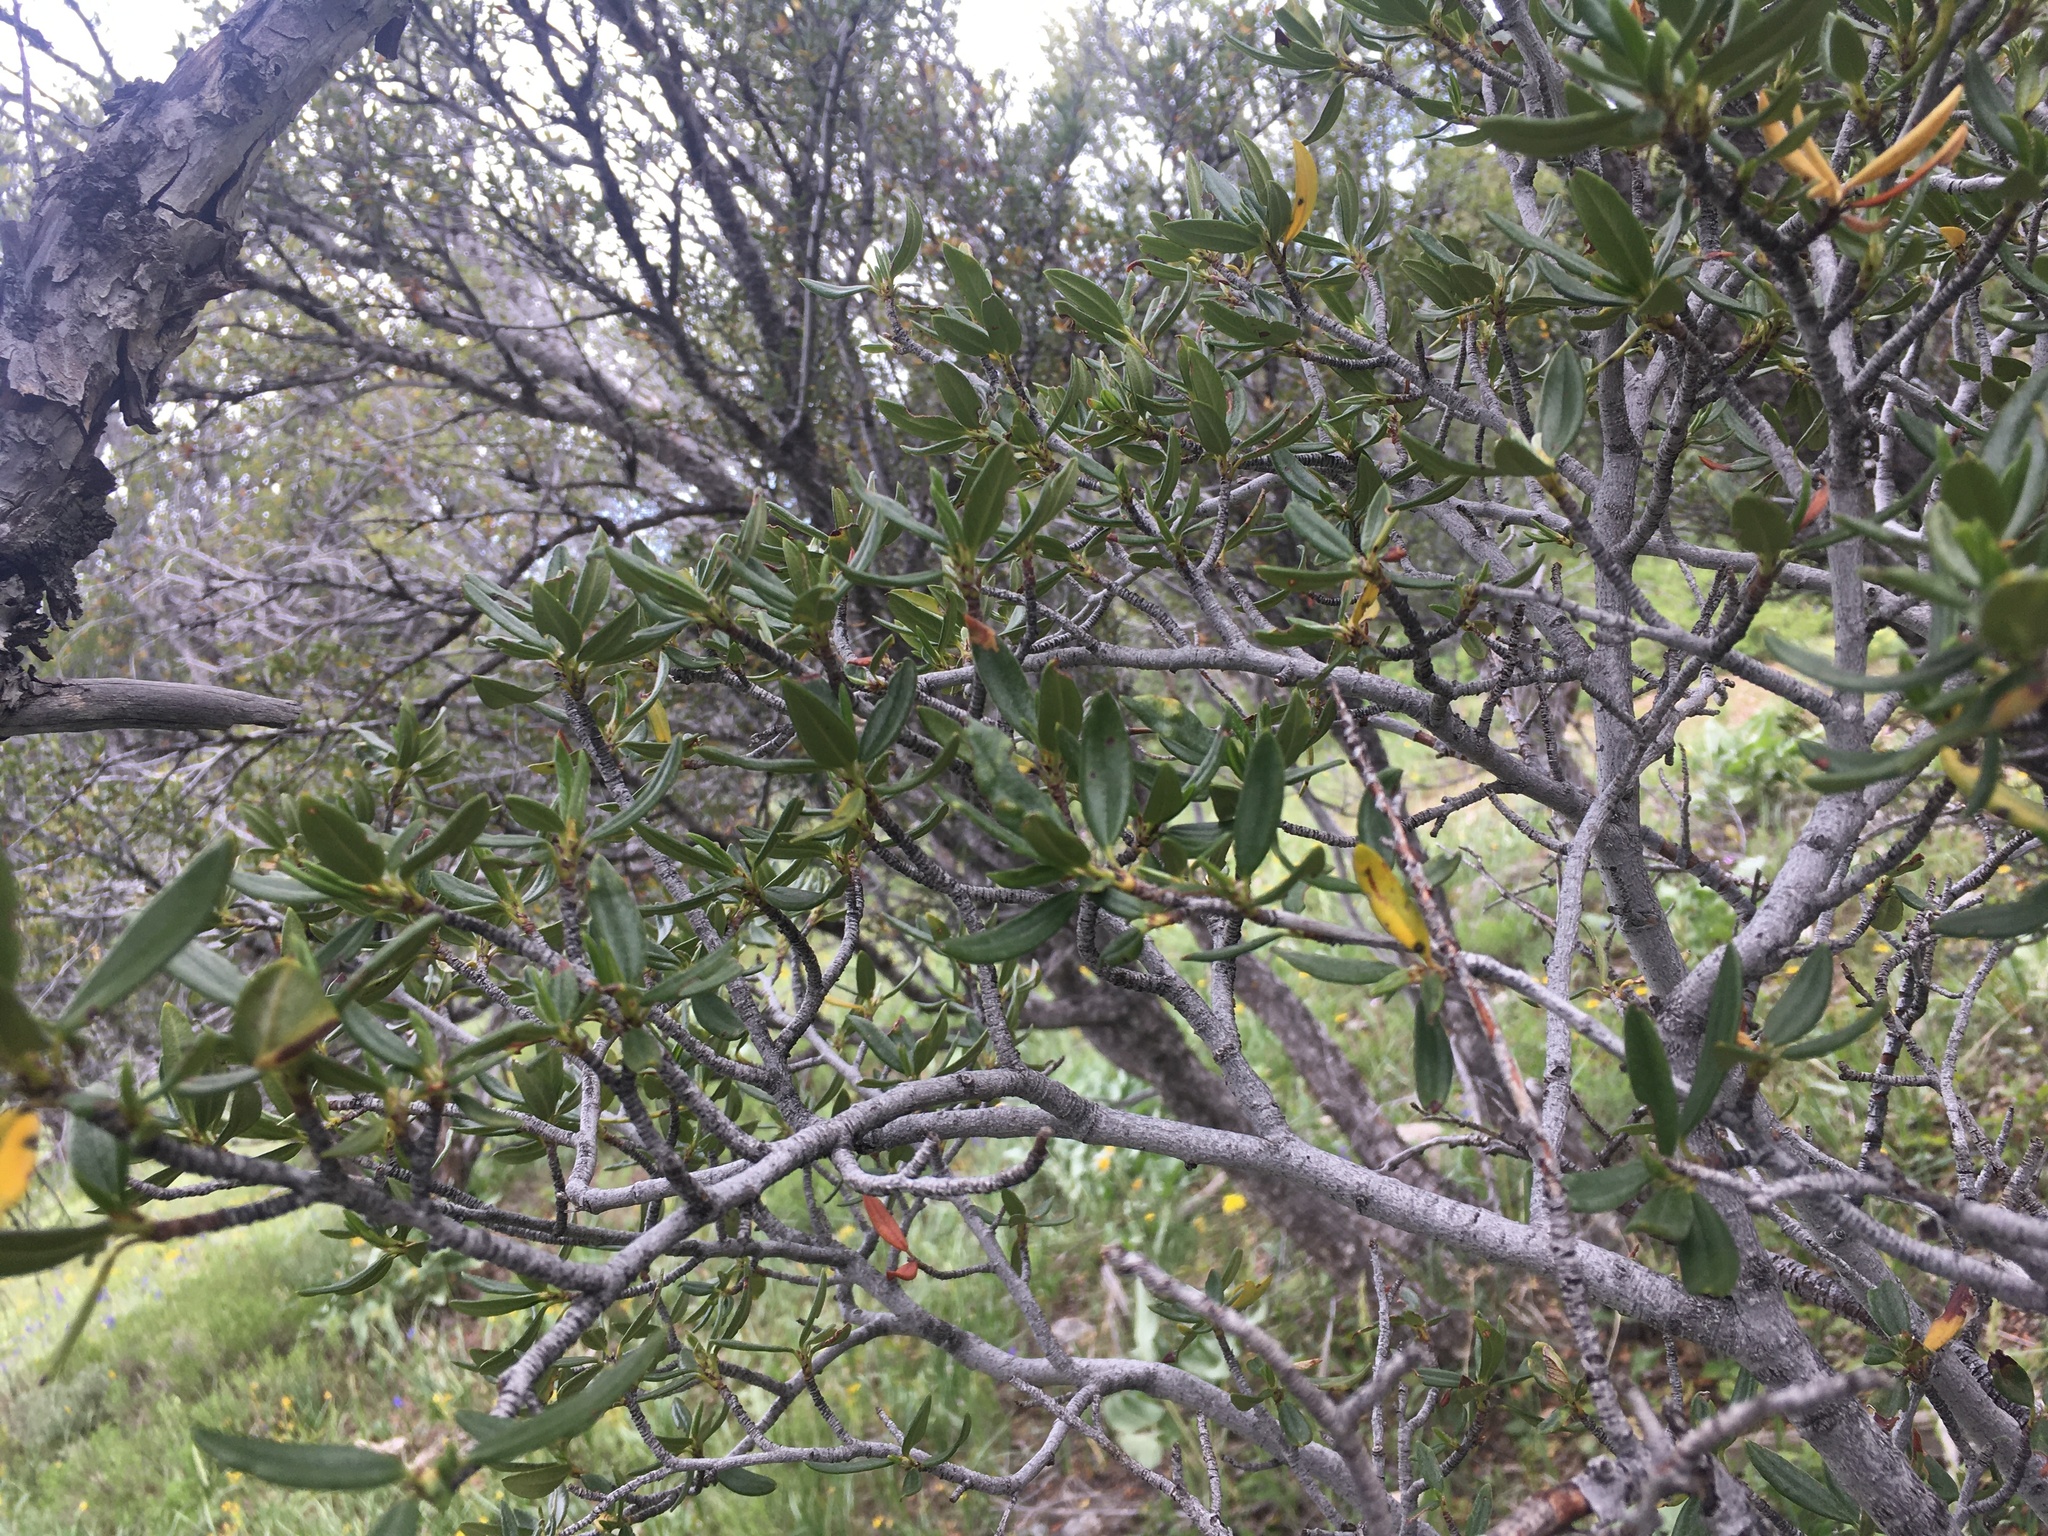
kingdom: Plantae
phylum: Tracheophyta
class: Magnoliopsida
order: Rosales
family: Rosaceae
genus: Cercocarpus
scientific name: Cercocarpus ledifolius
